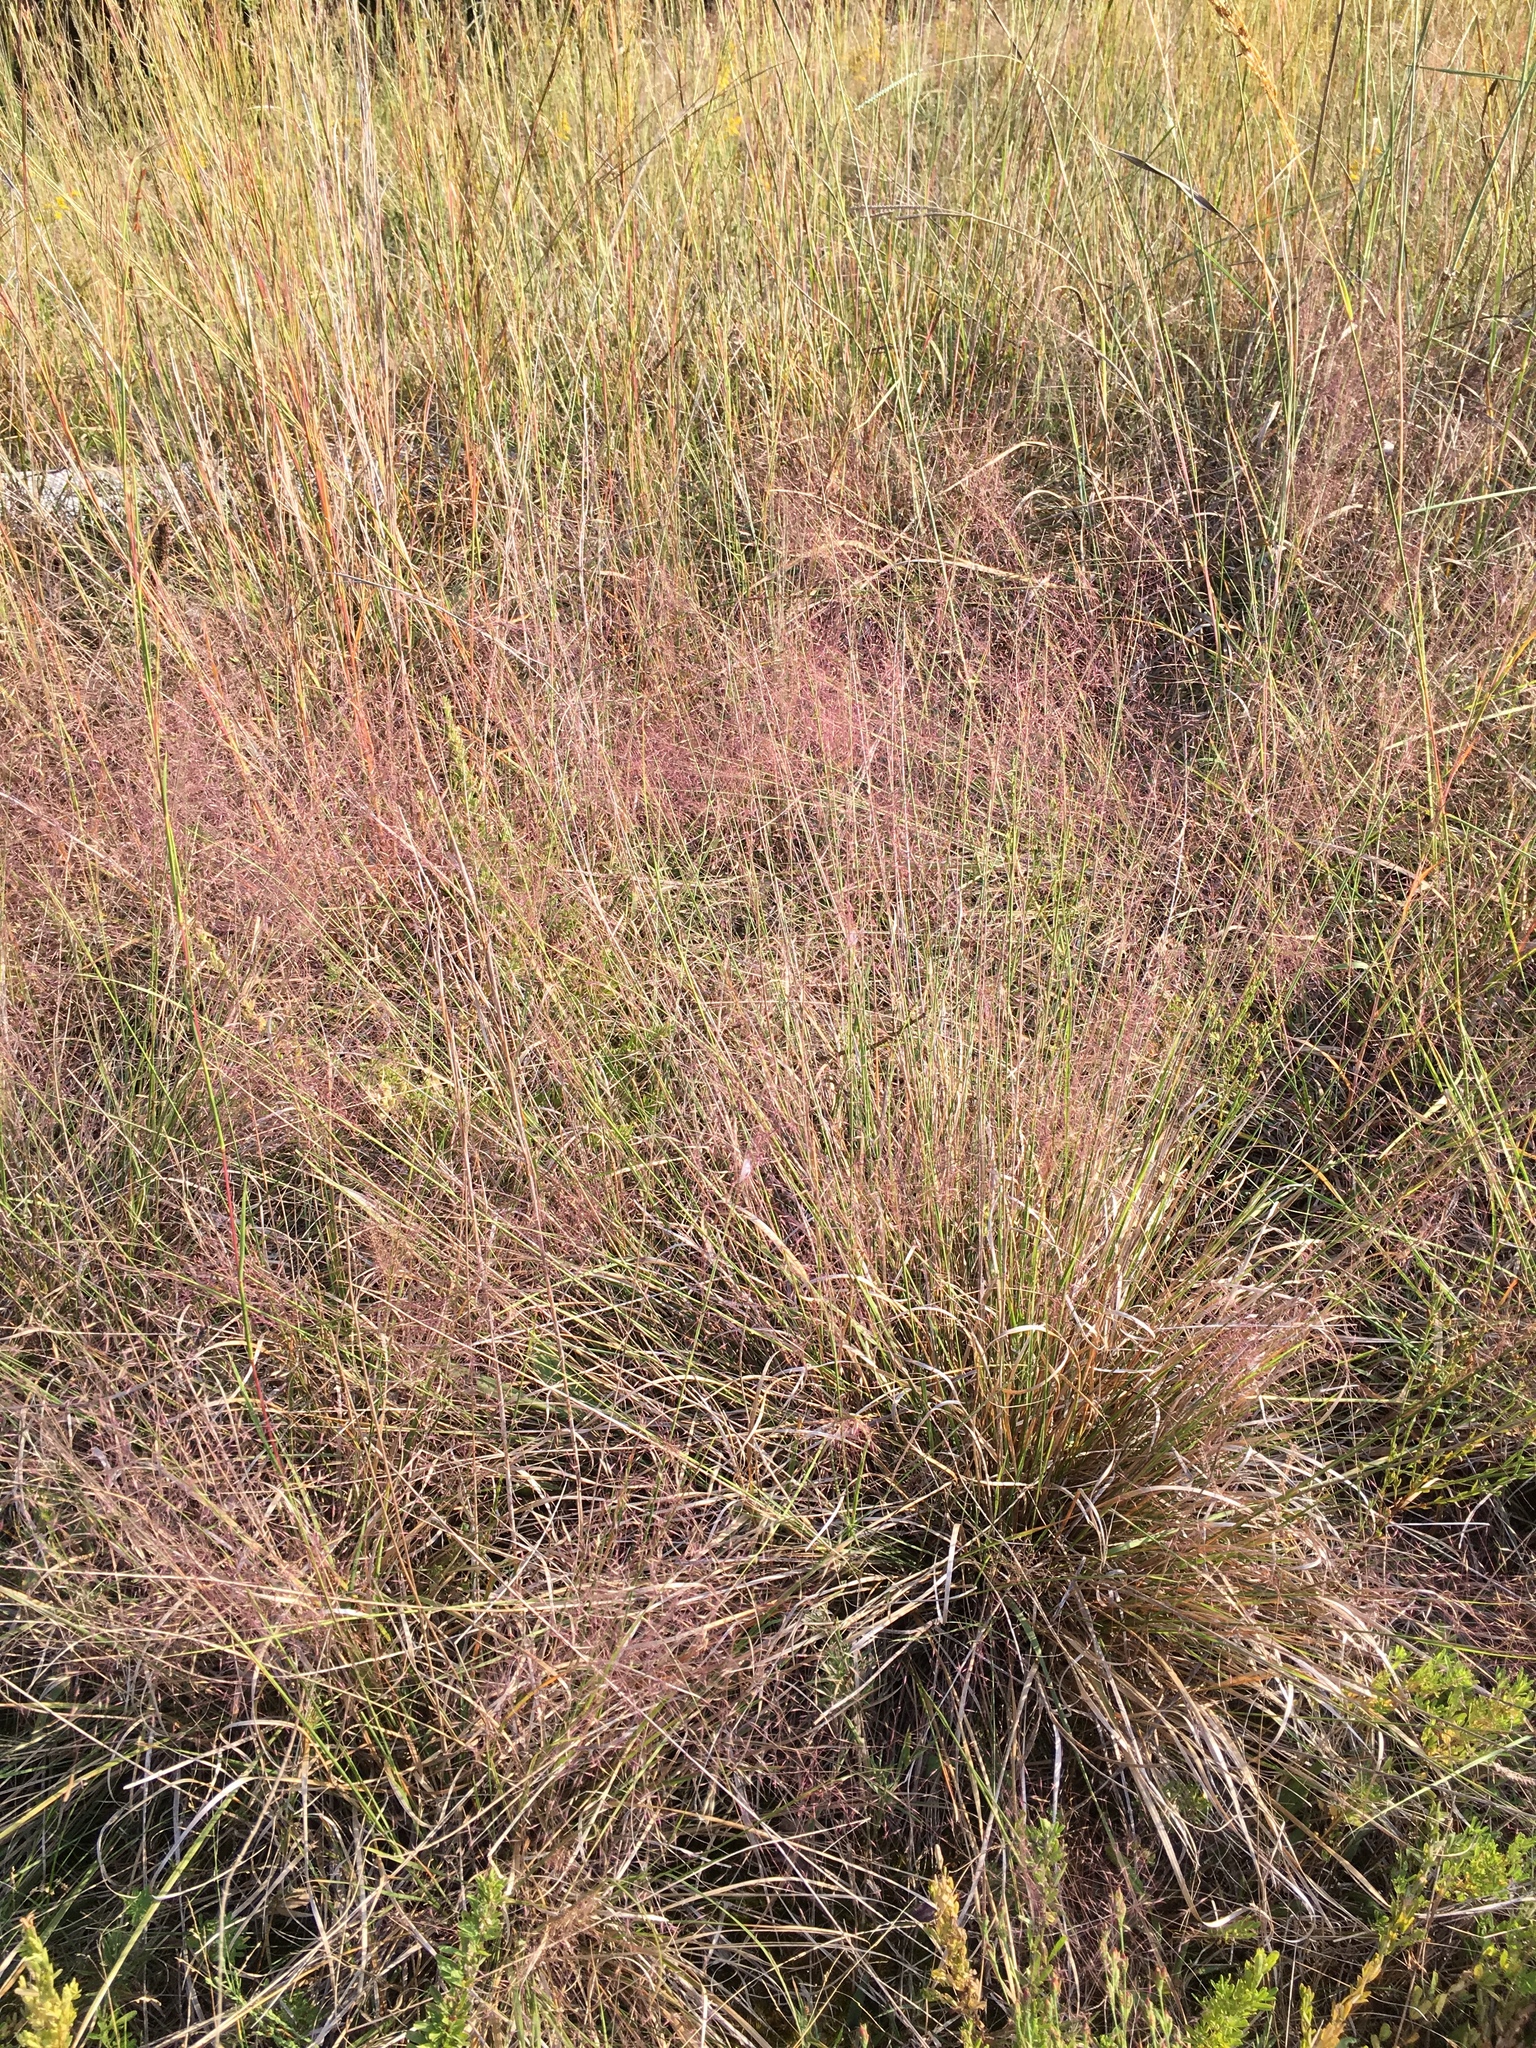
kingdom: Plantae
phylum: Tracheophyta
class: Liliopsida
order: Poales
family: Poaceae
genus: Muhlenbergia
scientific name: Muhlenbergia capillaris
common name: Purple grass
